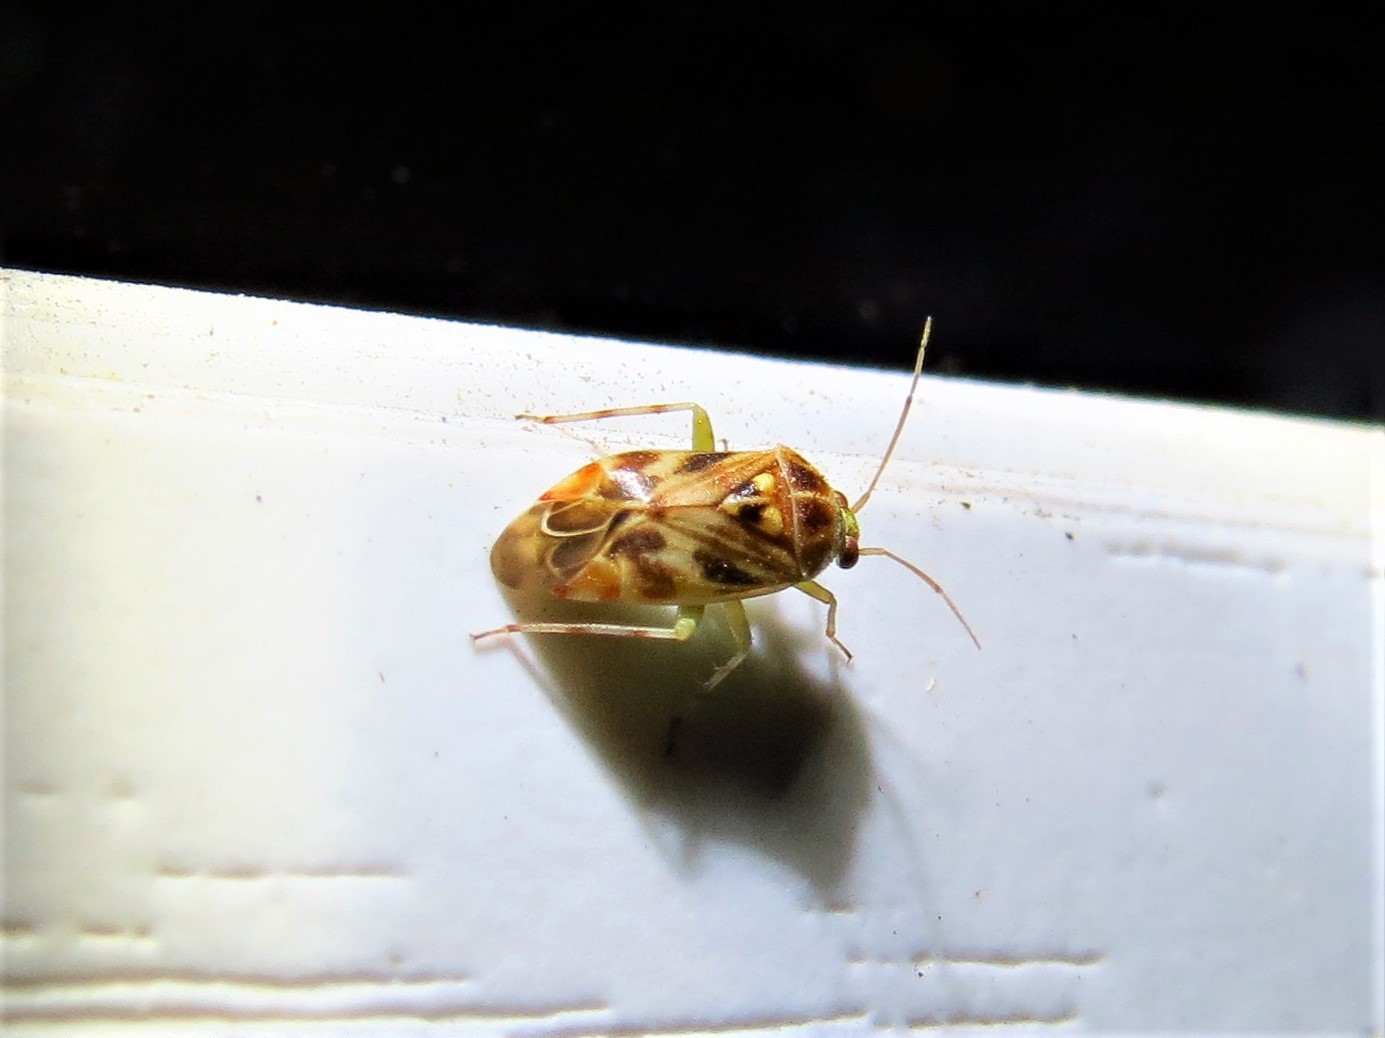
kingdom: Animalia
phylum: Arthropoda
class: Insecta
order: Hemiptera
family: Miridae
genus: Tropidosteptes
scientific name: Tropidosteptes quercicola
